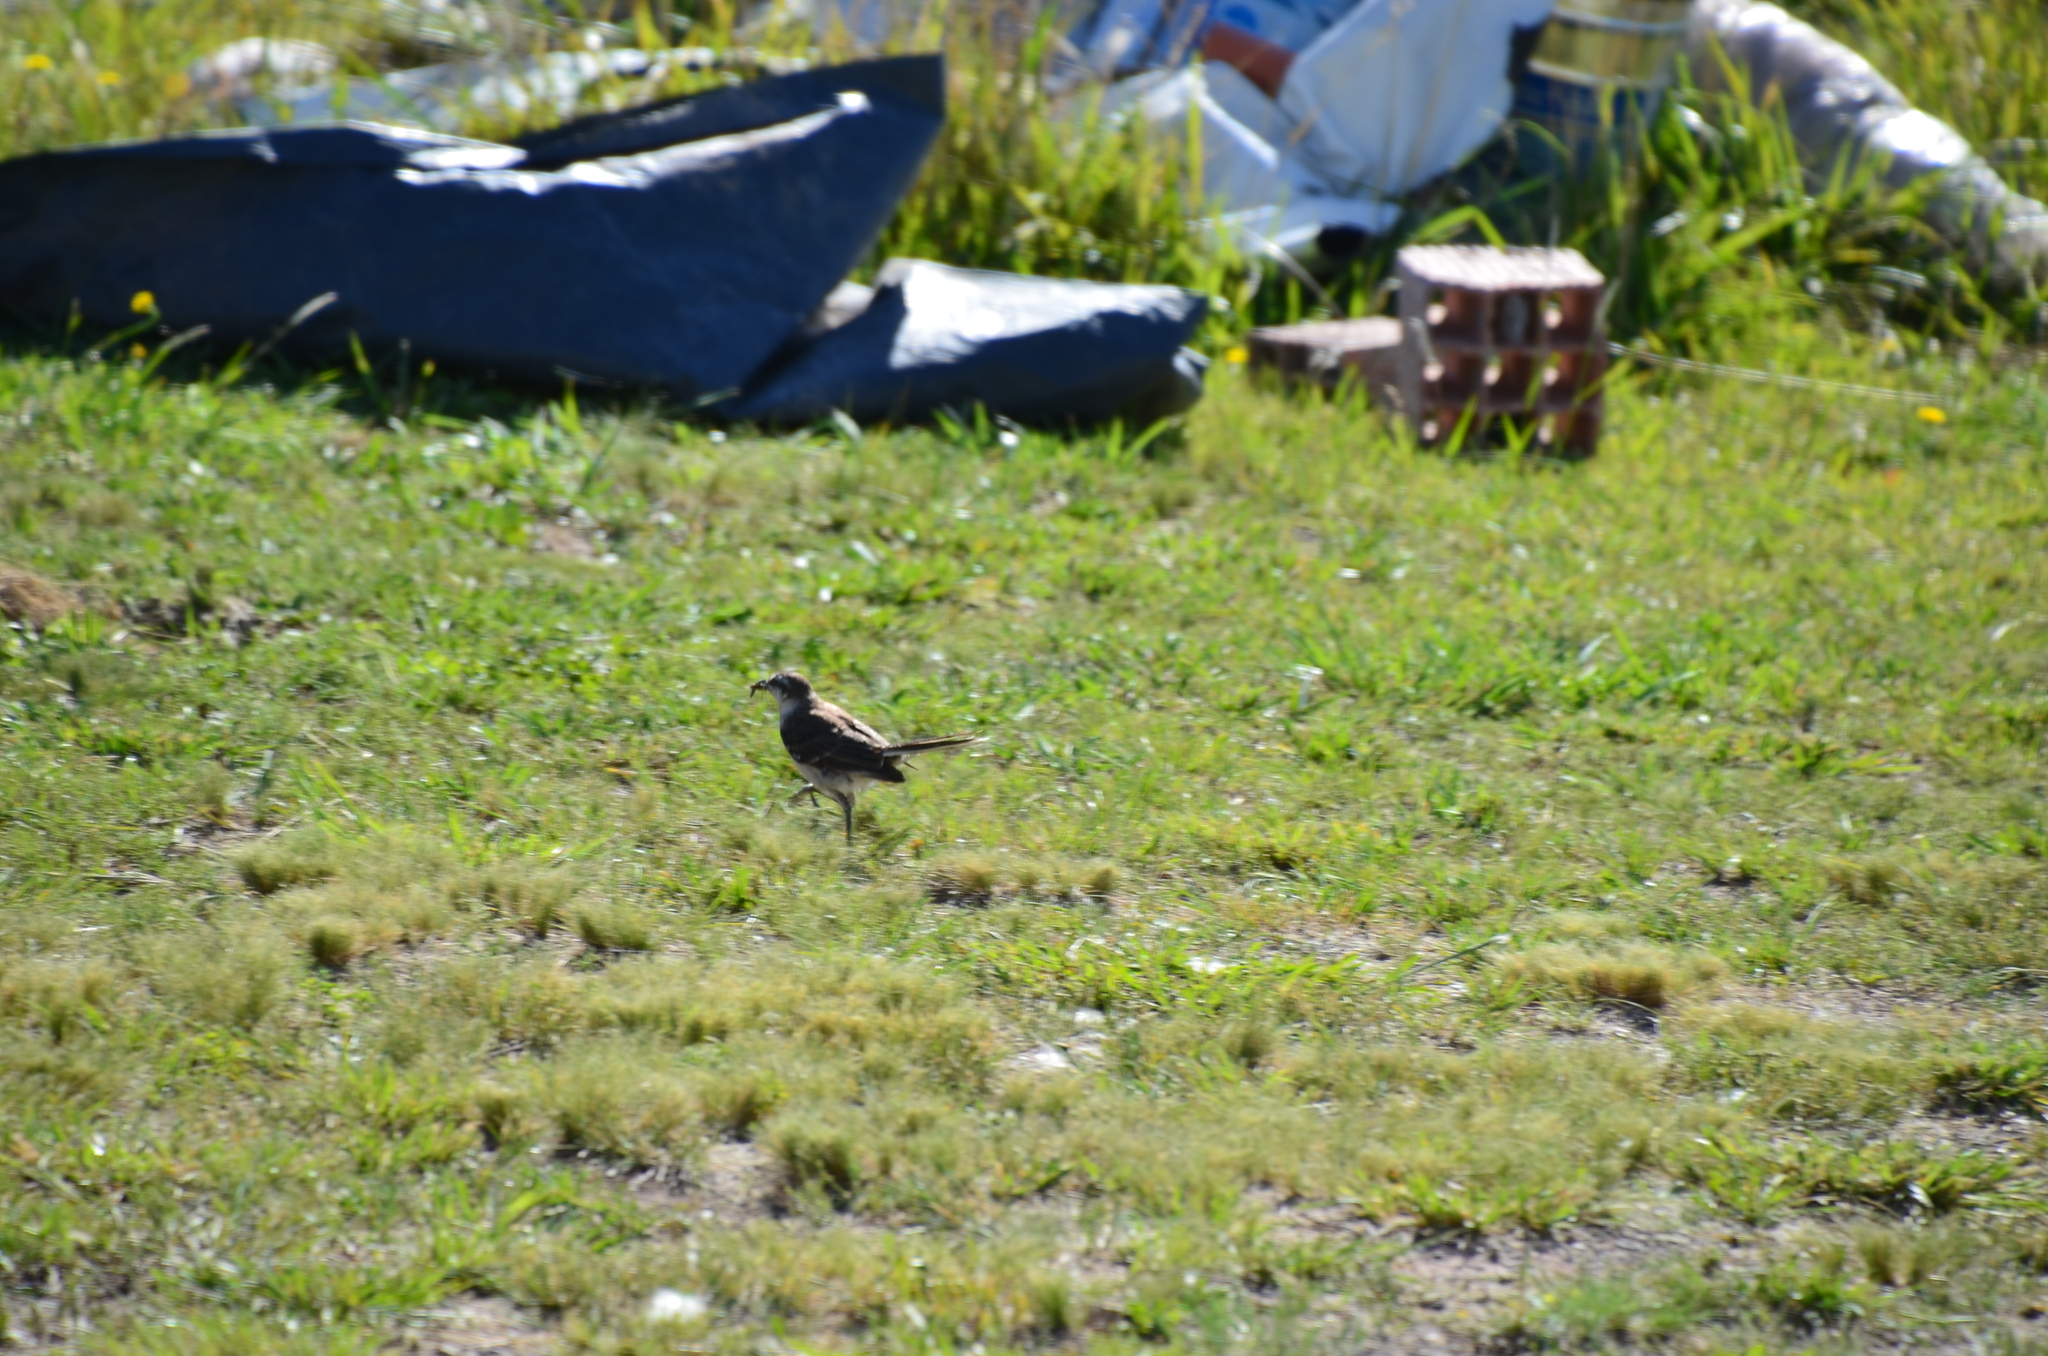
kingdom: Animalia
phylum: Chordata
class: Aves
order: Passeriformes
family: Mimidae
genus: Mimus
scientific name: Mimus saturninus
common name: Chalk-browed mockingbird
